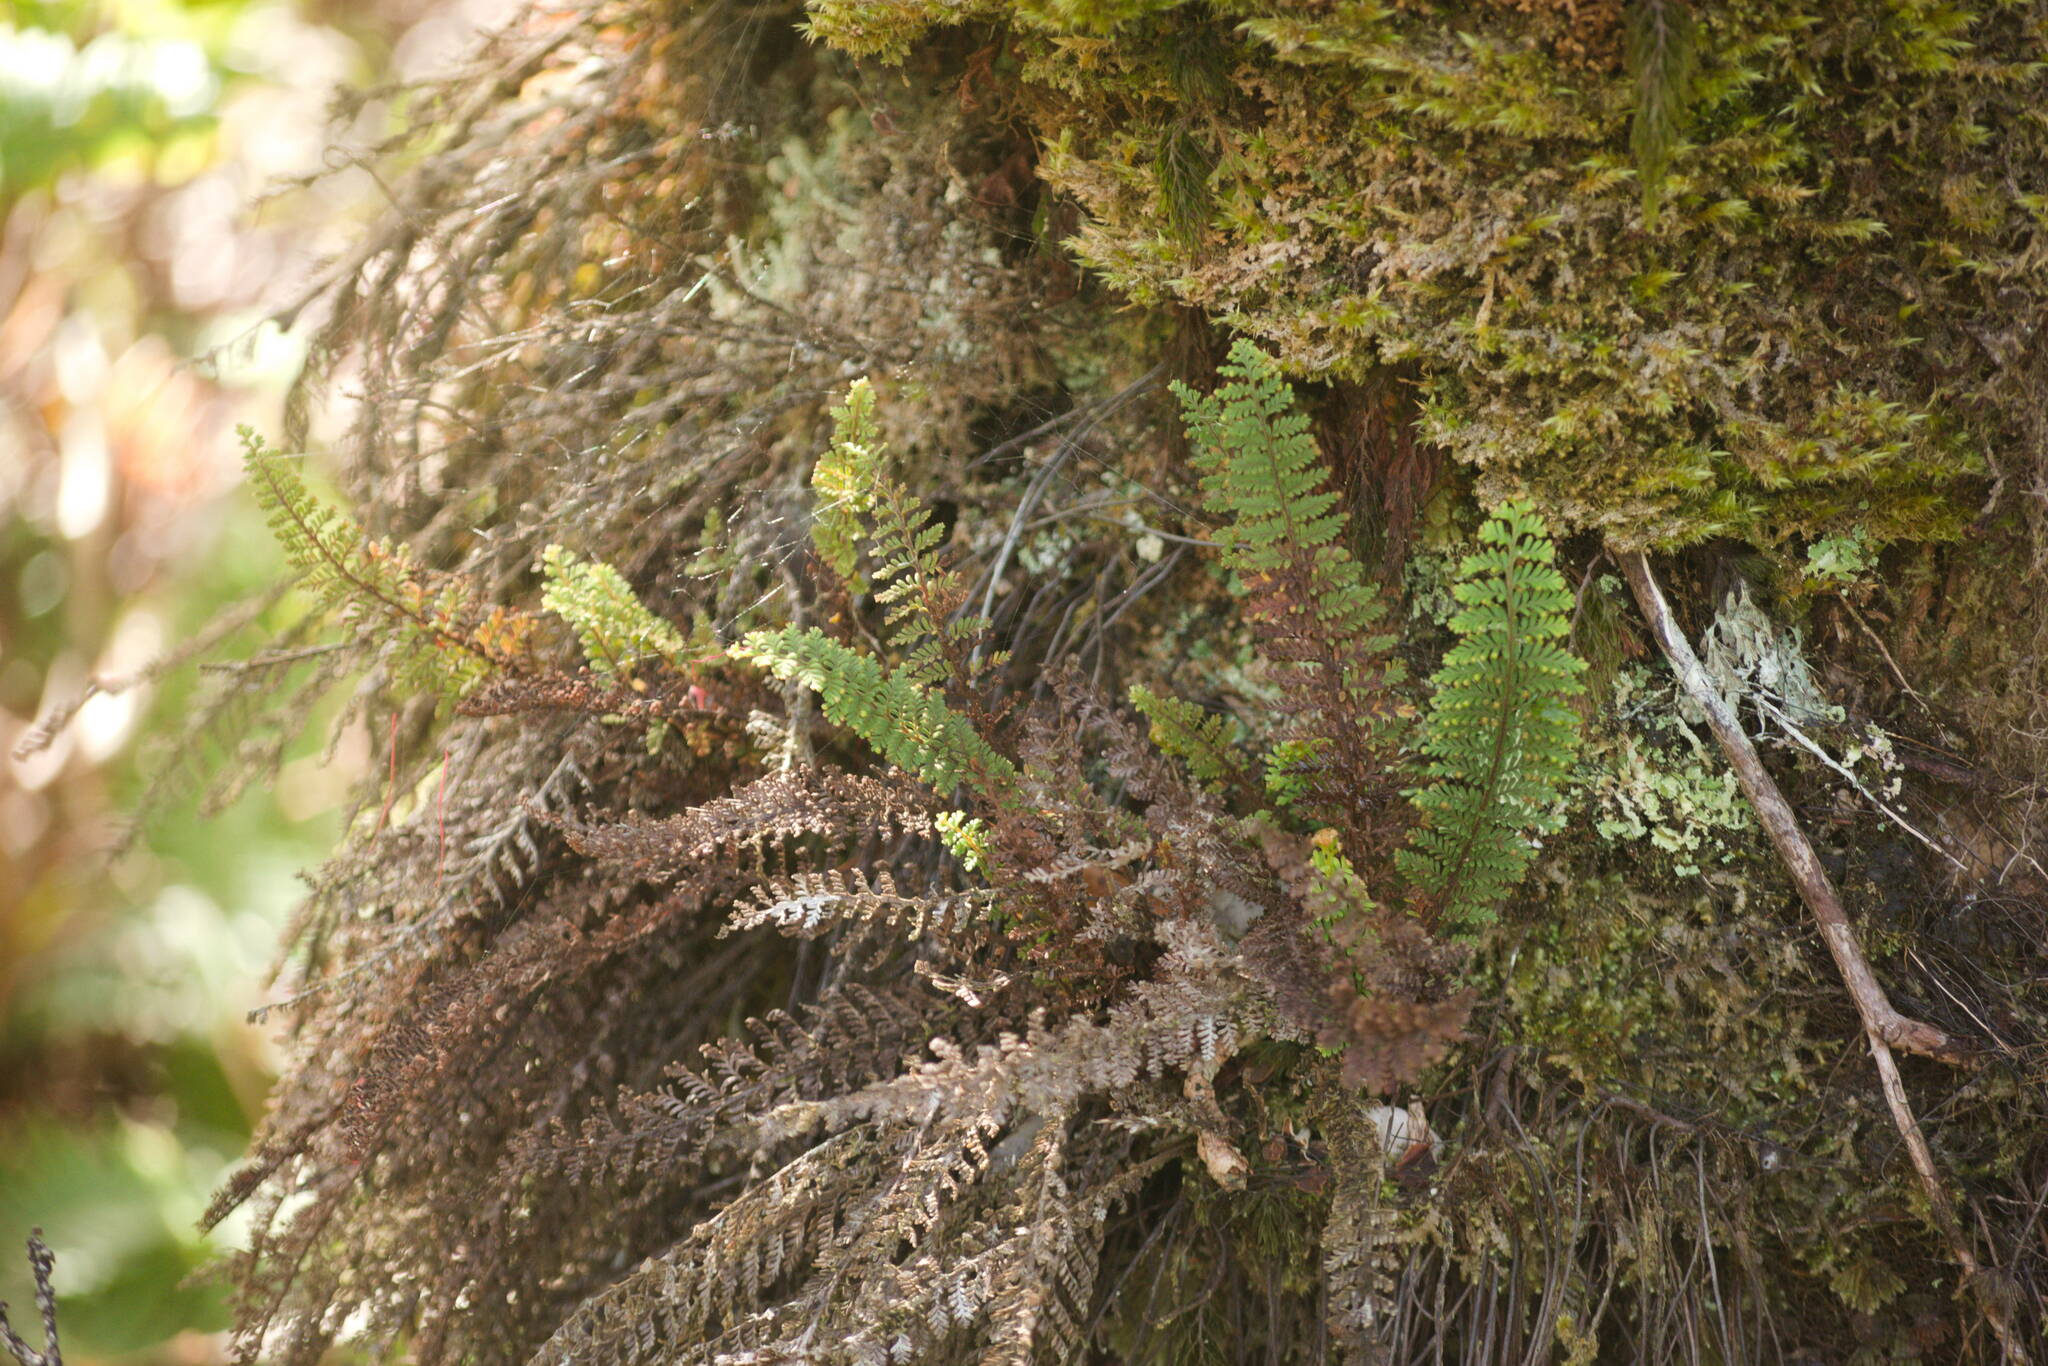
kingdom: Plantae
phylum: Tracheophyta
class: Polypodiopsida
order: Polypodiales
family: Polypodiaceae
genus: Adenophorus
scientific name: Adenophorus tamariscinus
